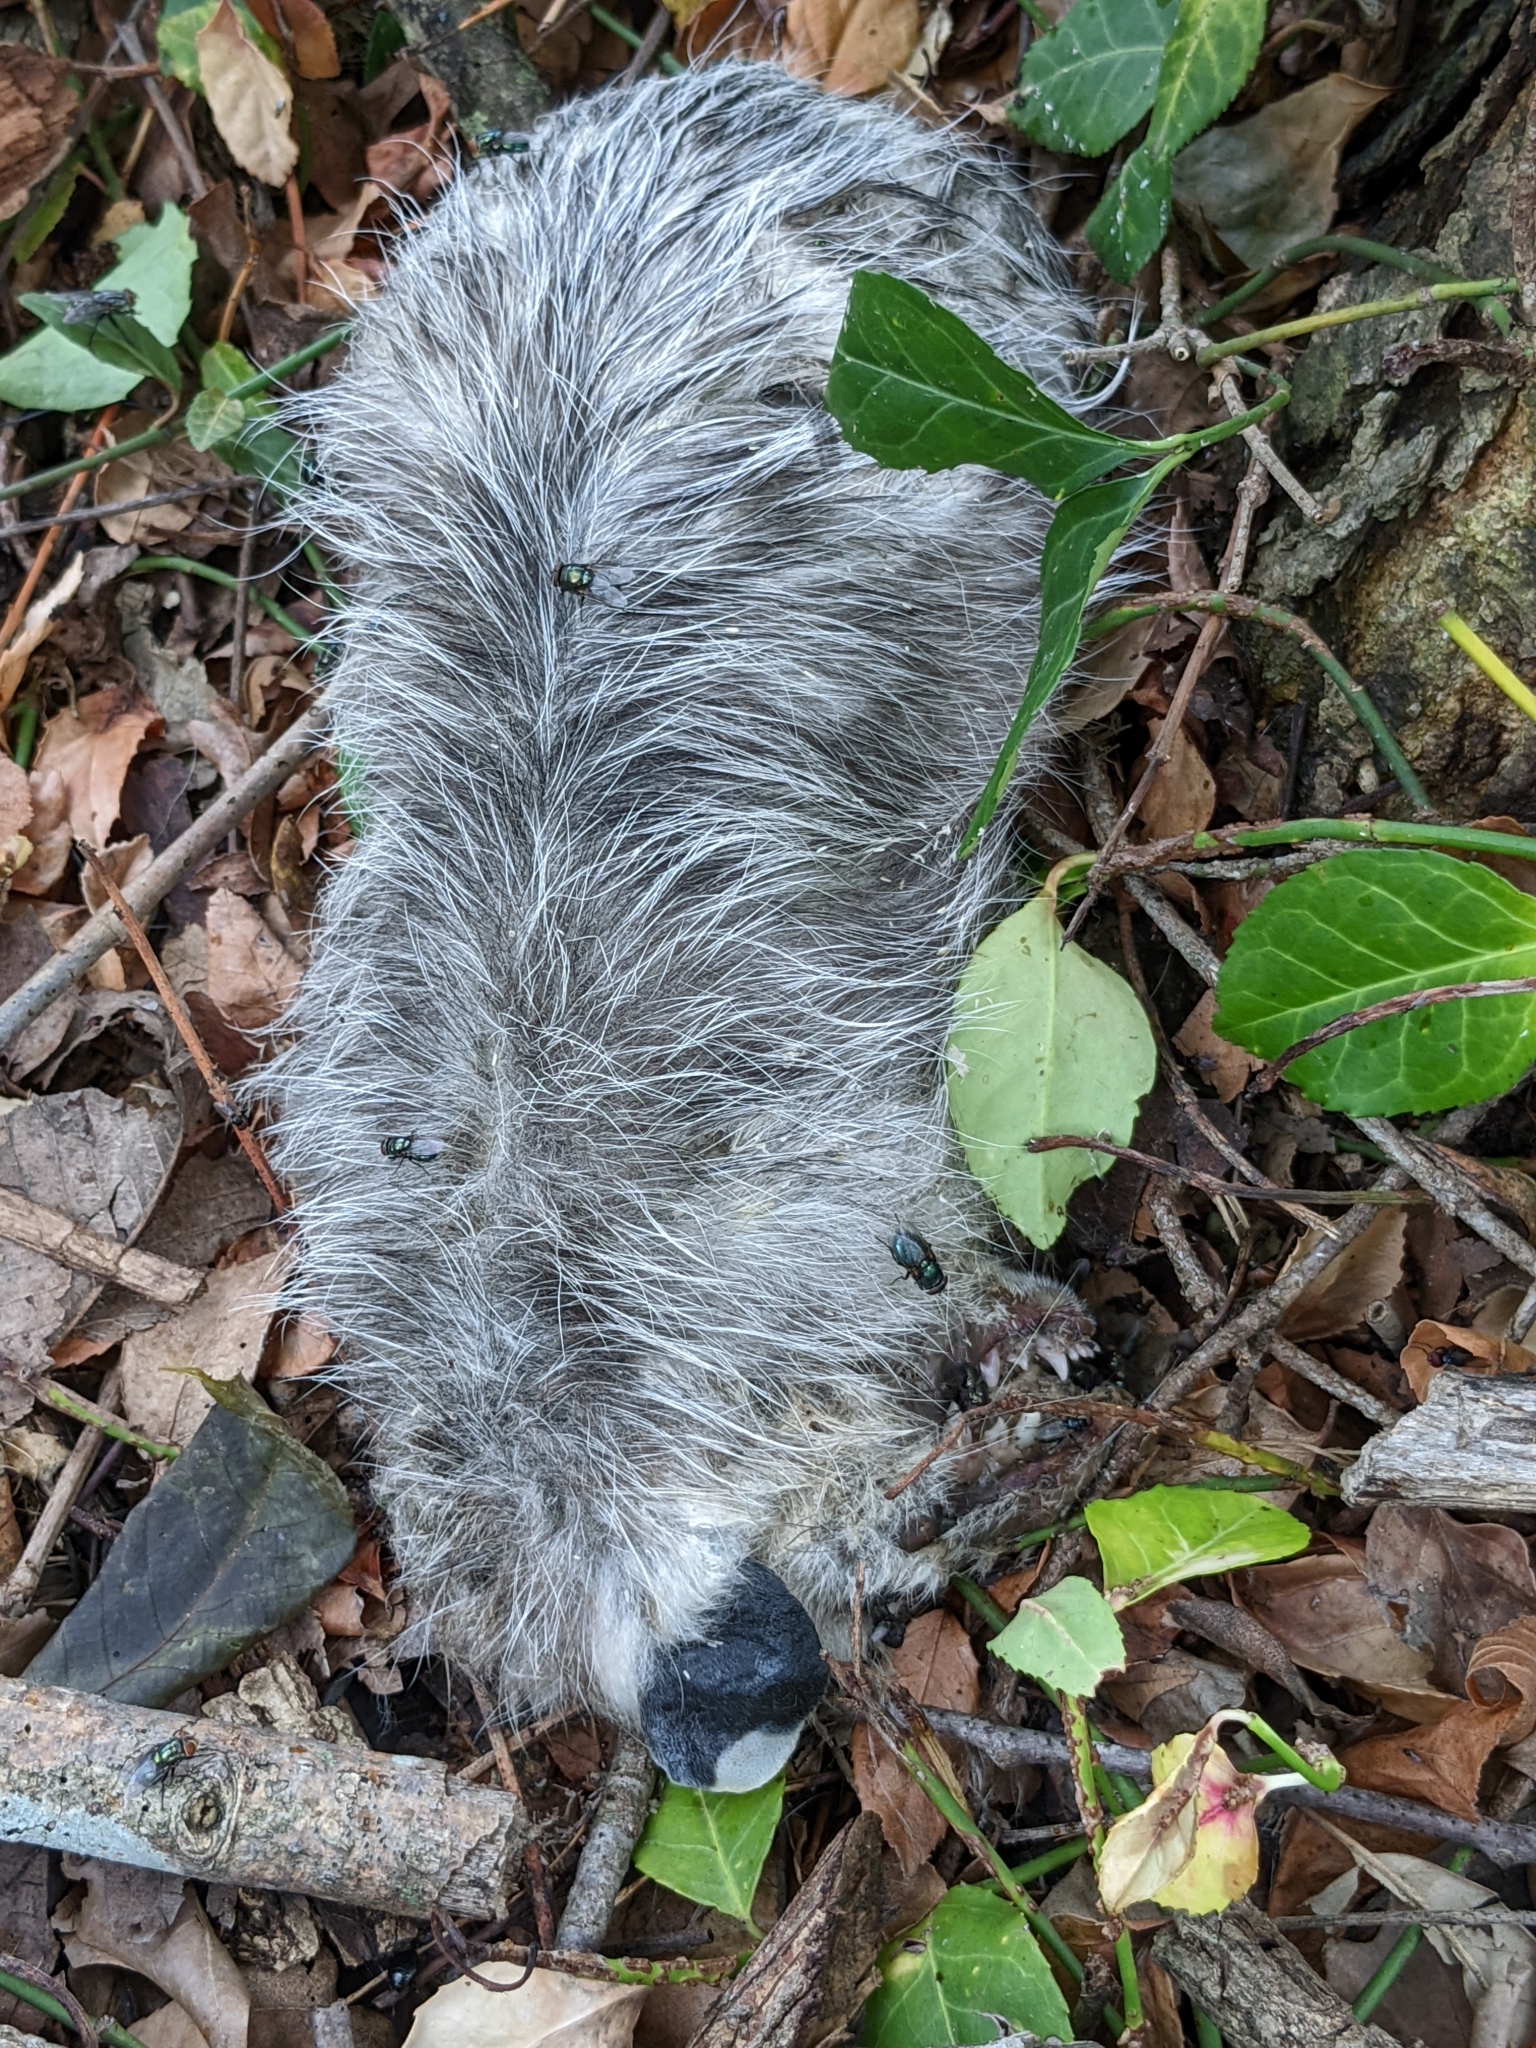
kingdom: Animalia
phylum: Chordata
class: Mammalia
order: Didelphimorphia
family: Didelphidae
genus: Didelphis
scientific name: Didelphis virginiana
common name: Virginia opossum
